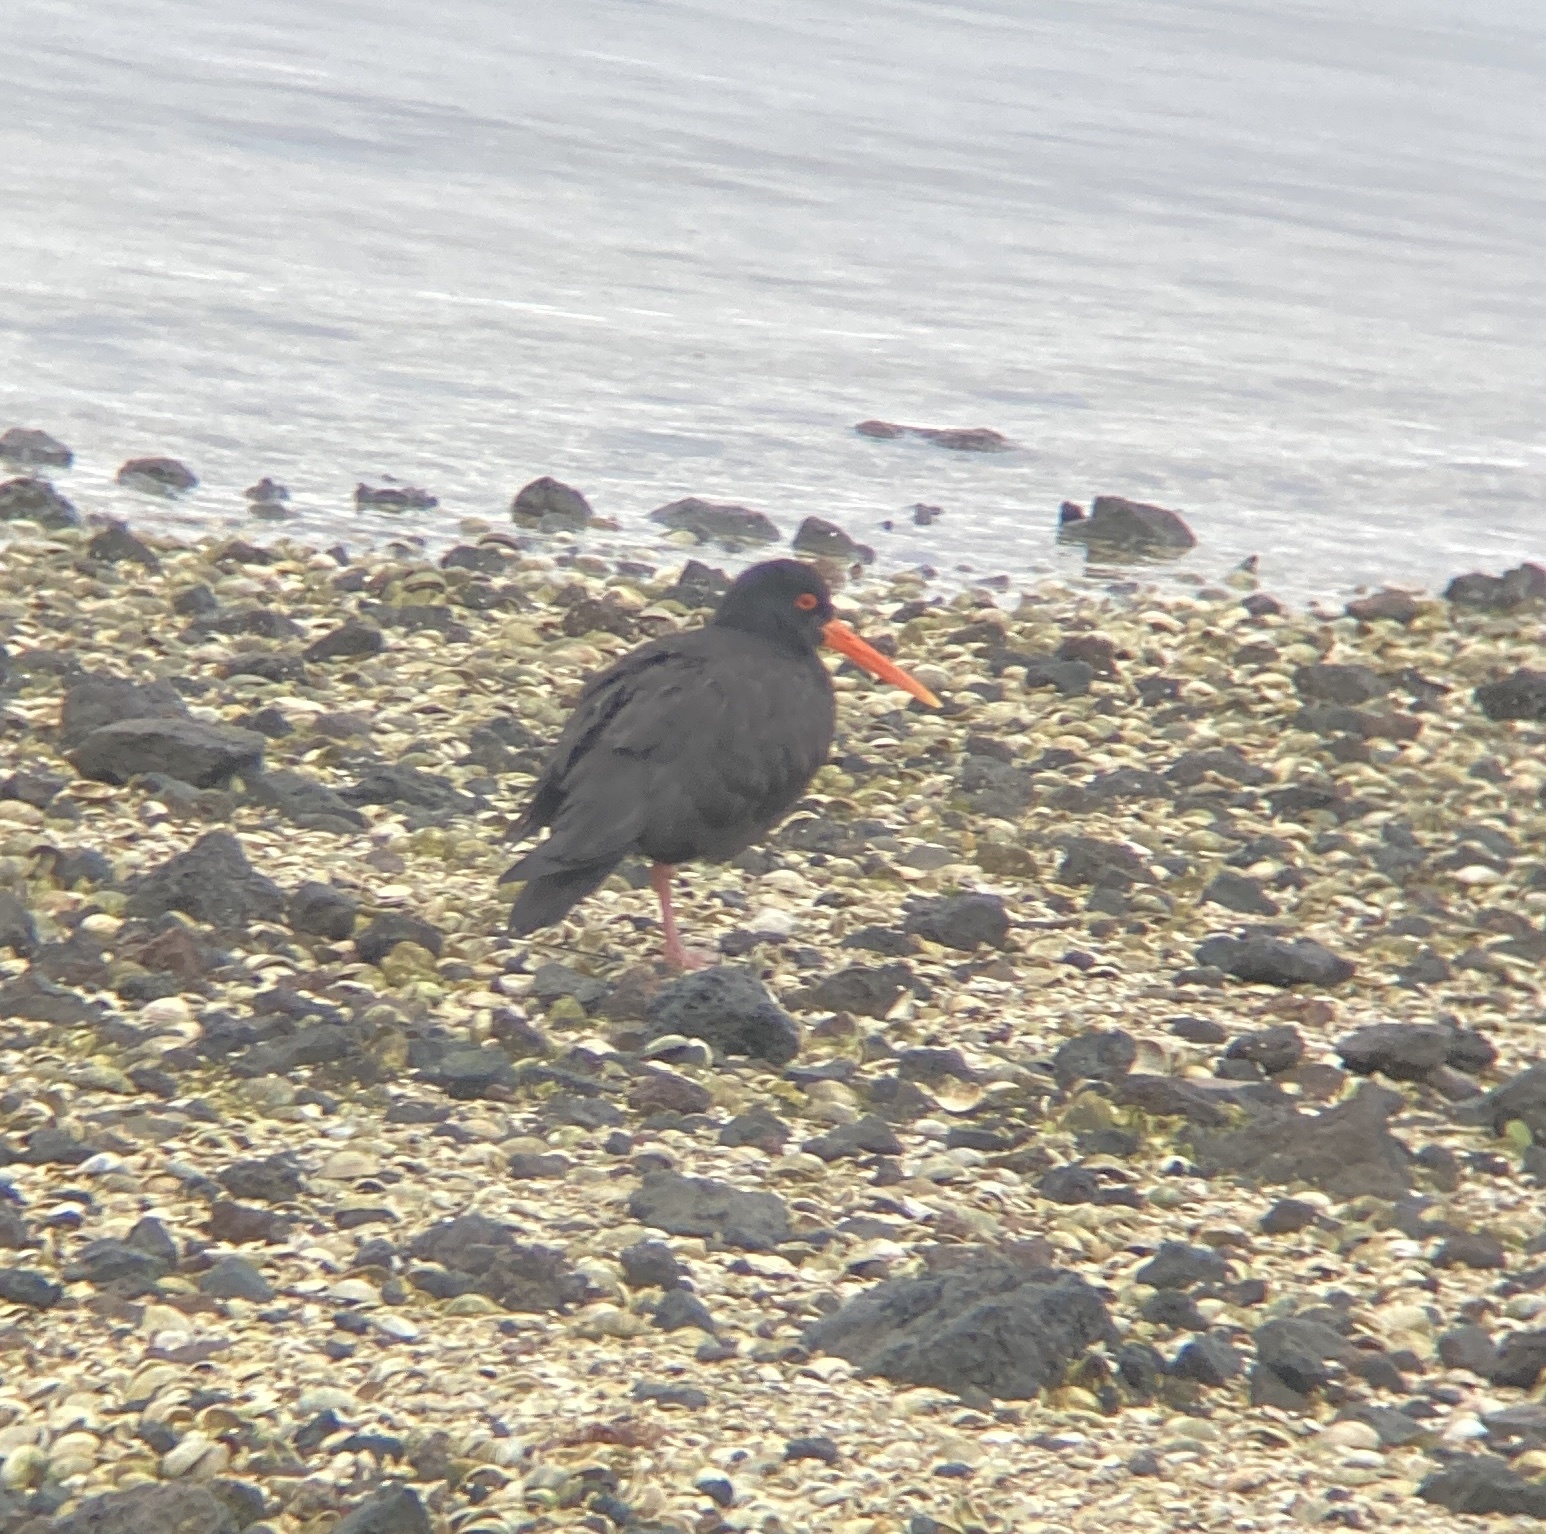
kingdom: Animalia
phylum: Chordata
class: Aves
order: Charadriiformes
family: Haematopodidae
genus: Haematopus
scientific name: Haematopus unicolor
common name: Variable oystercatcher
